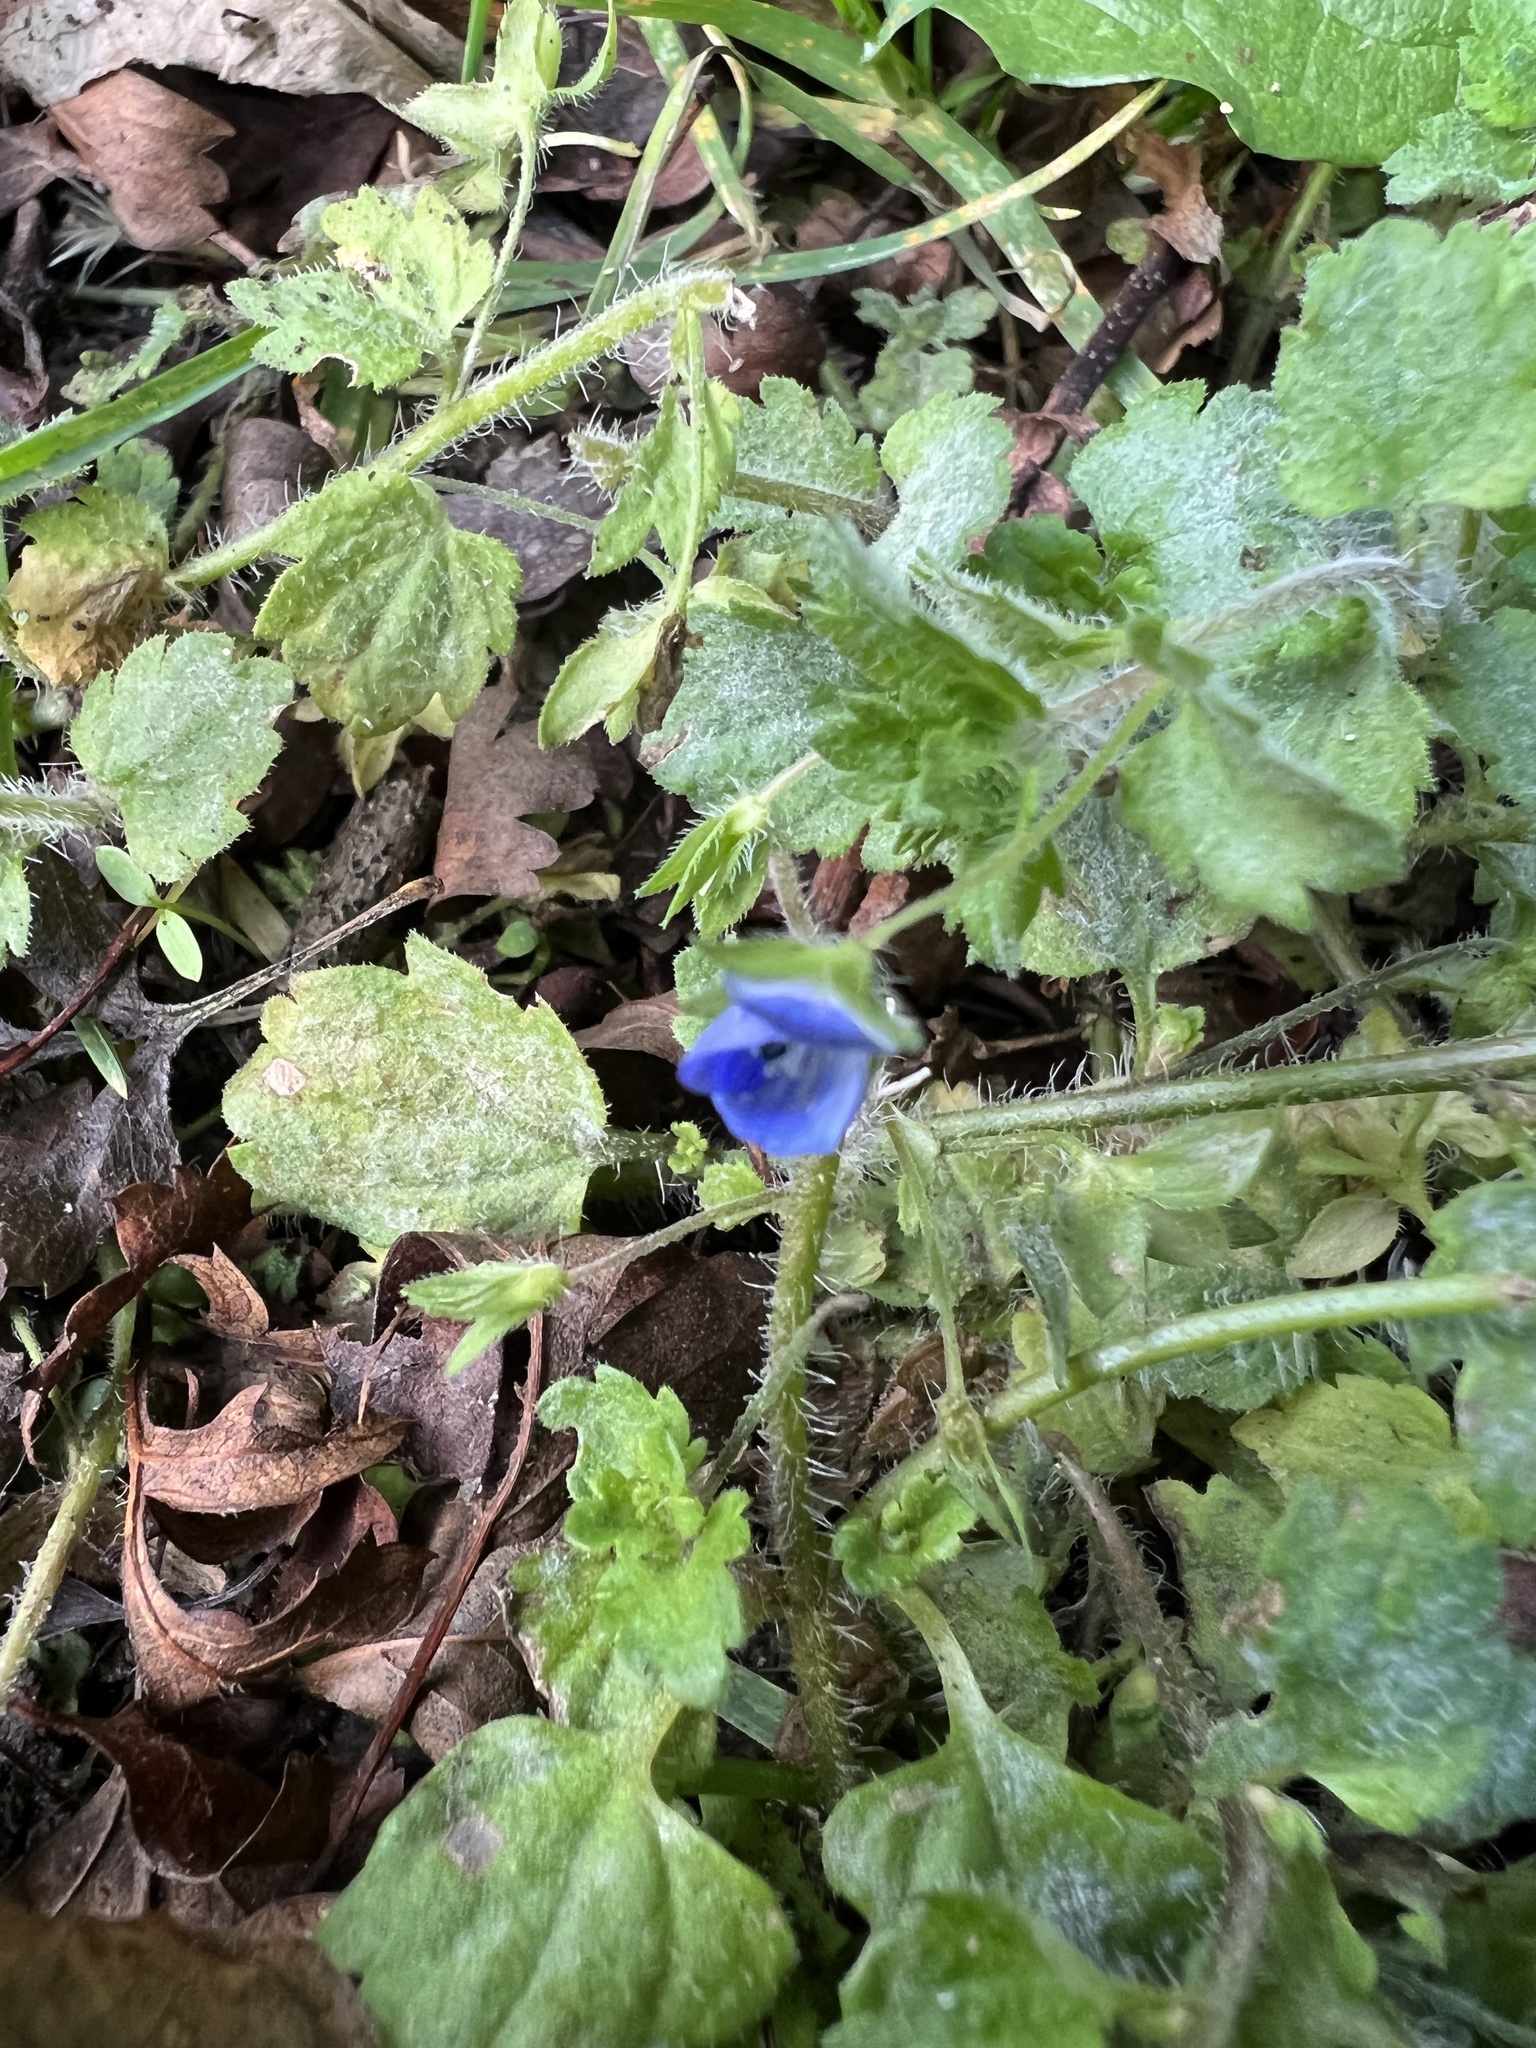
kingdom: Plantae
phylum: Tracheophyta
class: Magnoliopsida
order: Lamiales
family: Plantaginaceae
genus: Veronica
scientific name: Veronica persica
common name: Common field-speedwell
